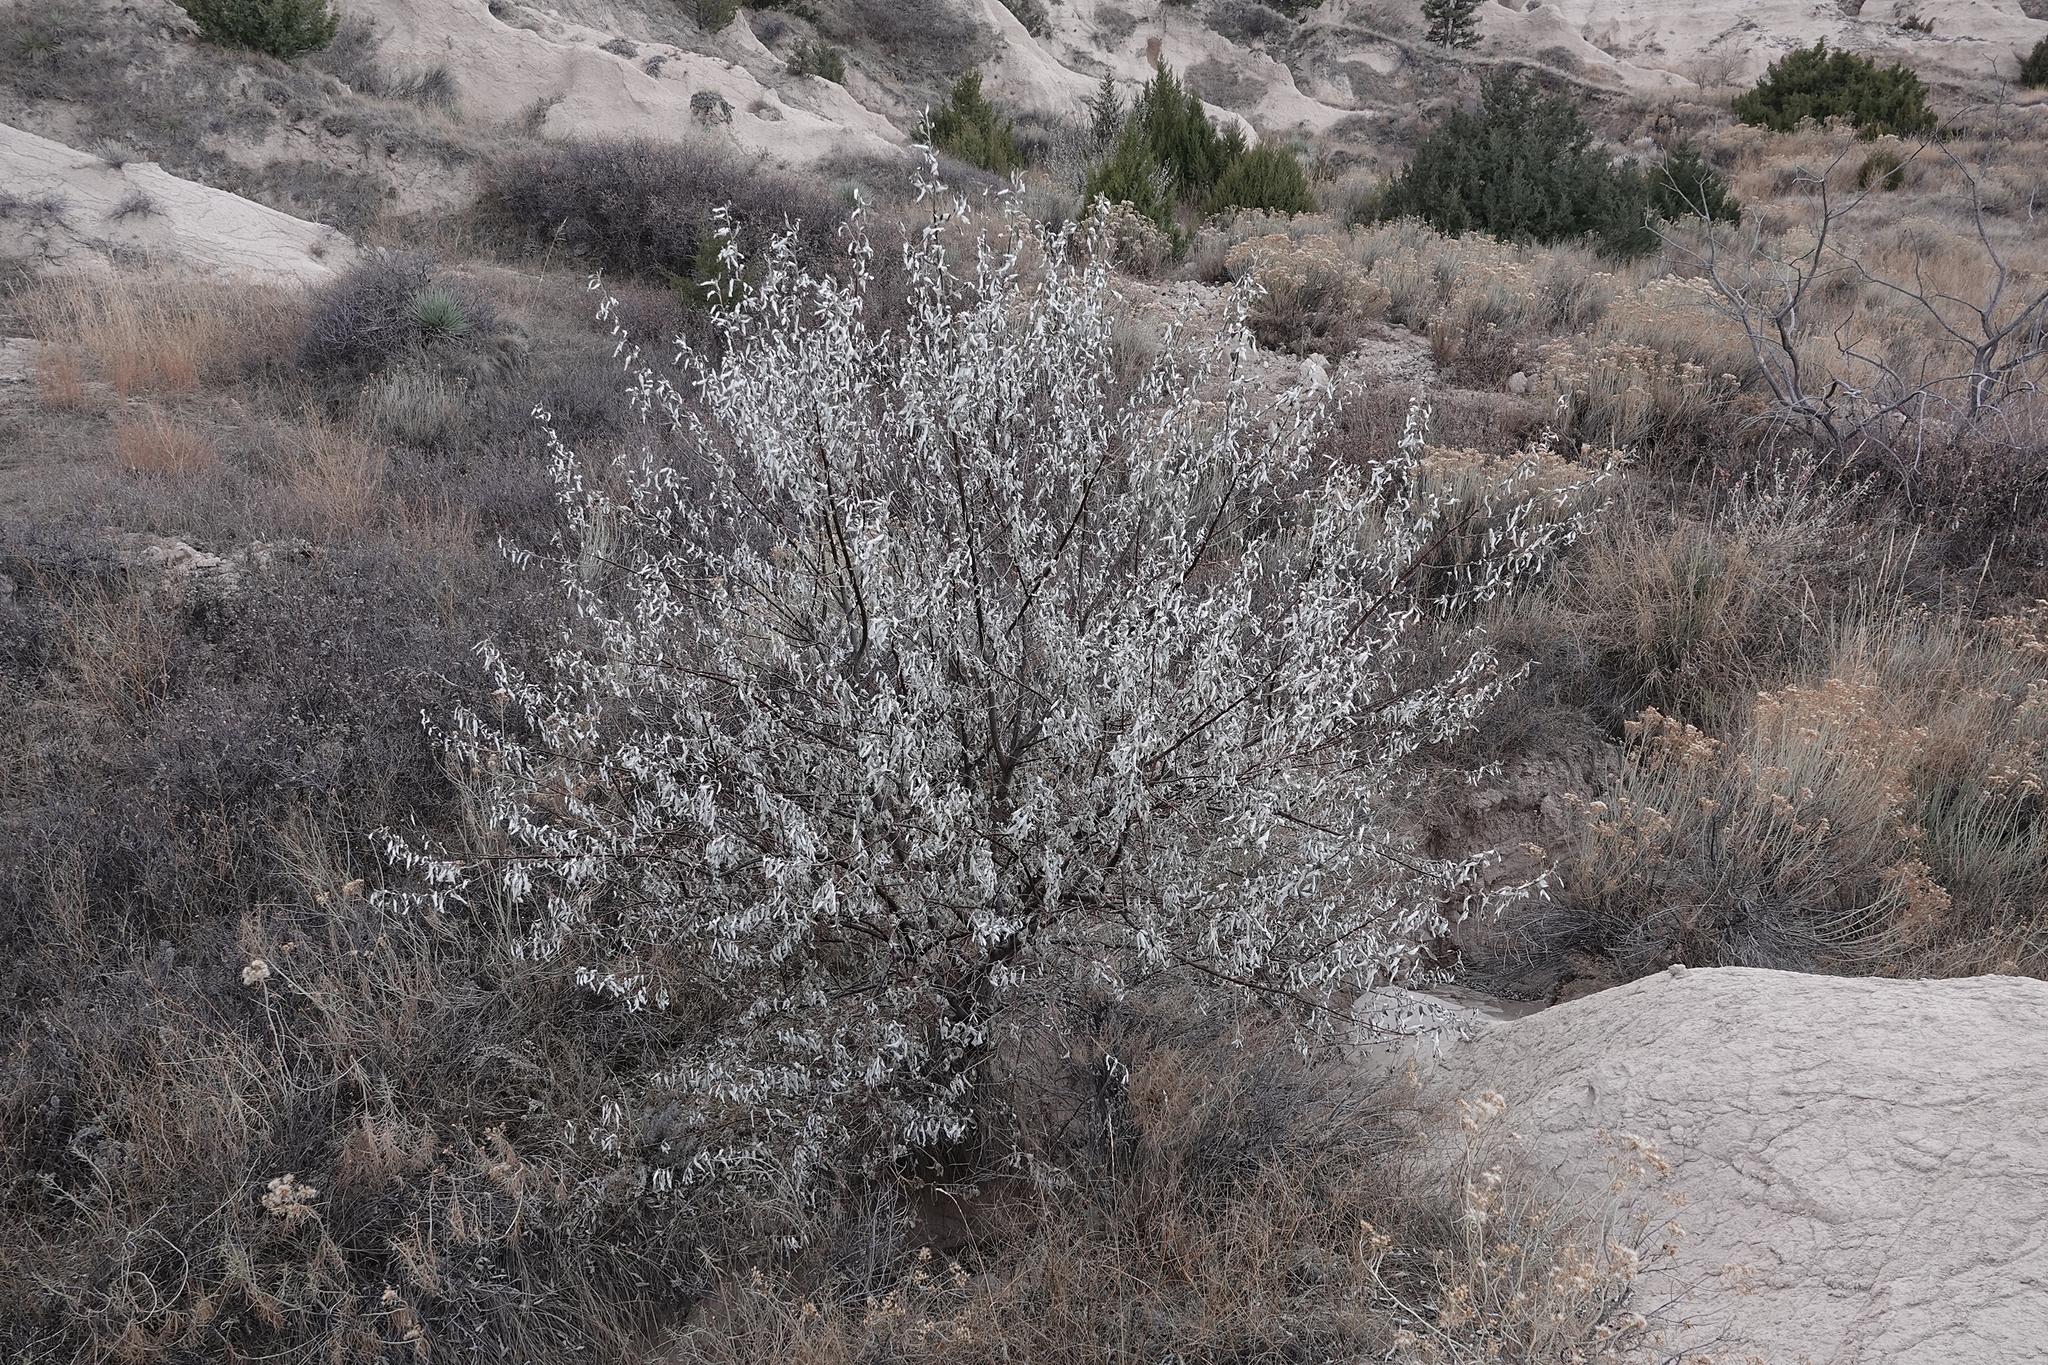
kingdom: Plantae
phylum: Tracheophyta
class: Magnoliopsida
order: Rosales
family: Elaeagnaceae
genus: Elaeagnus
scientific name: Elaeagnus angustifolia
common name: Russian olive
